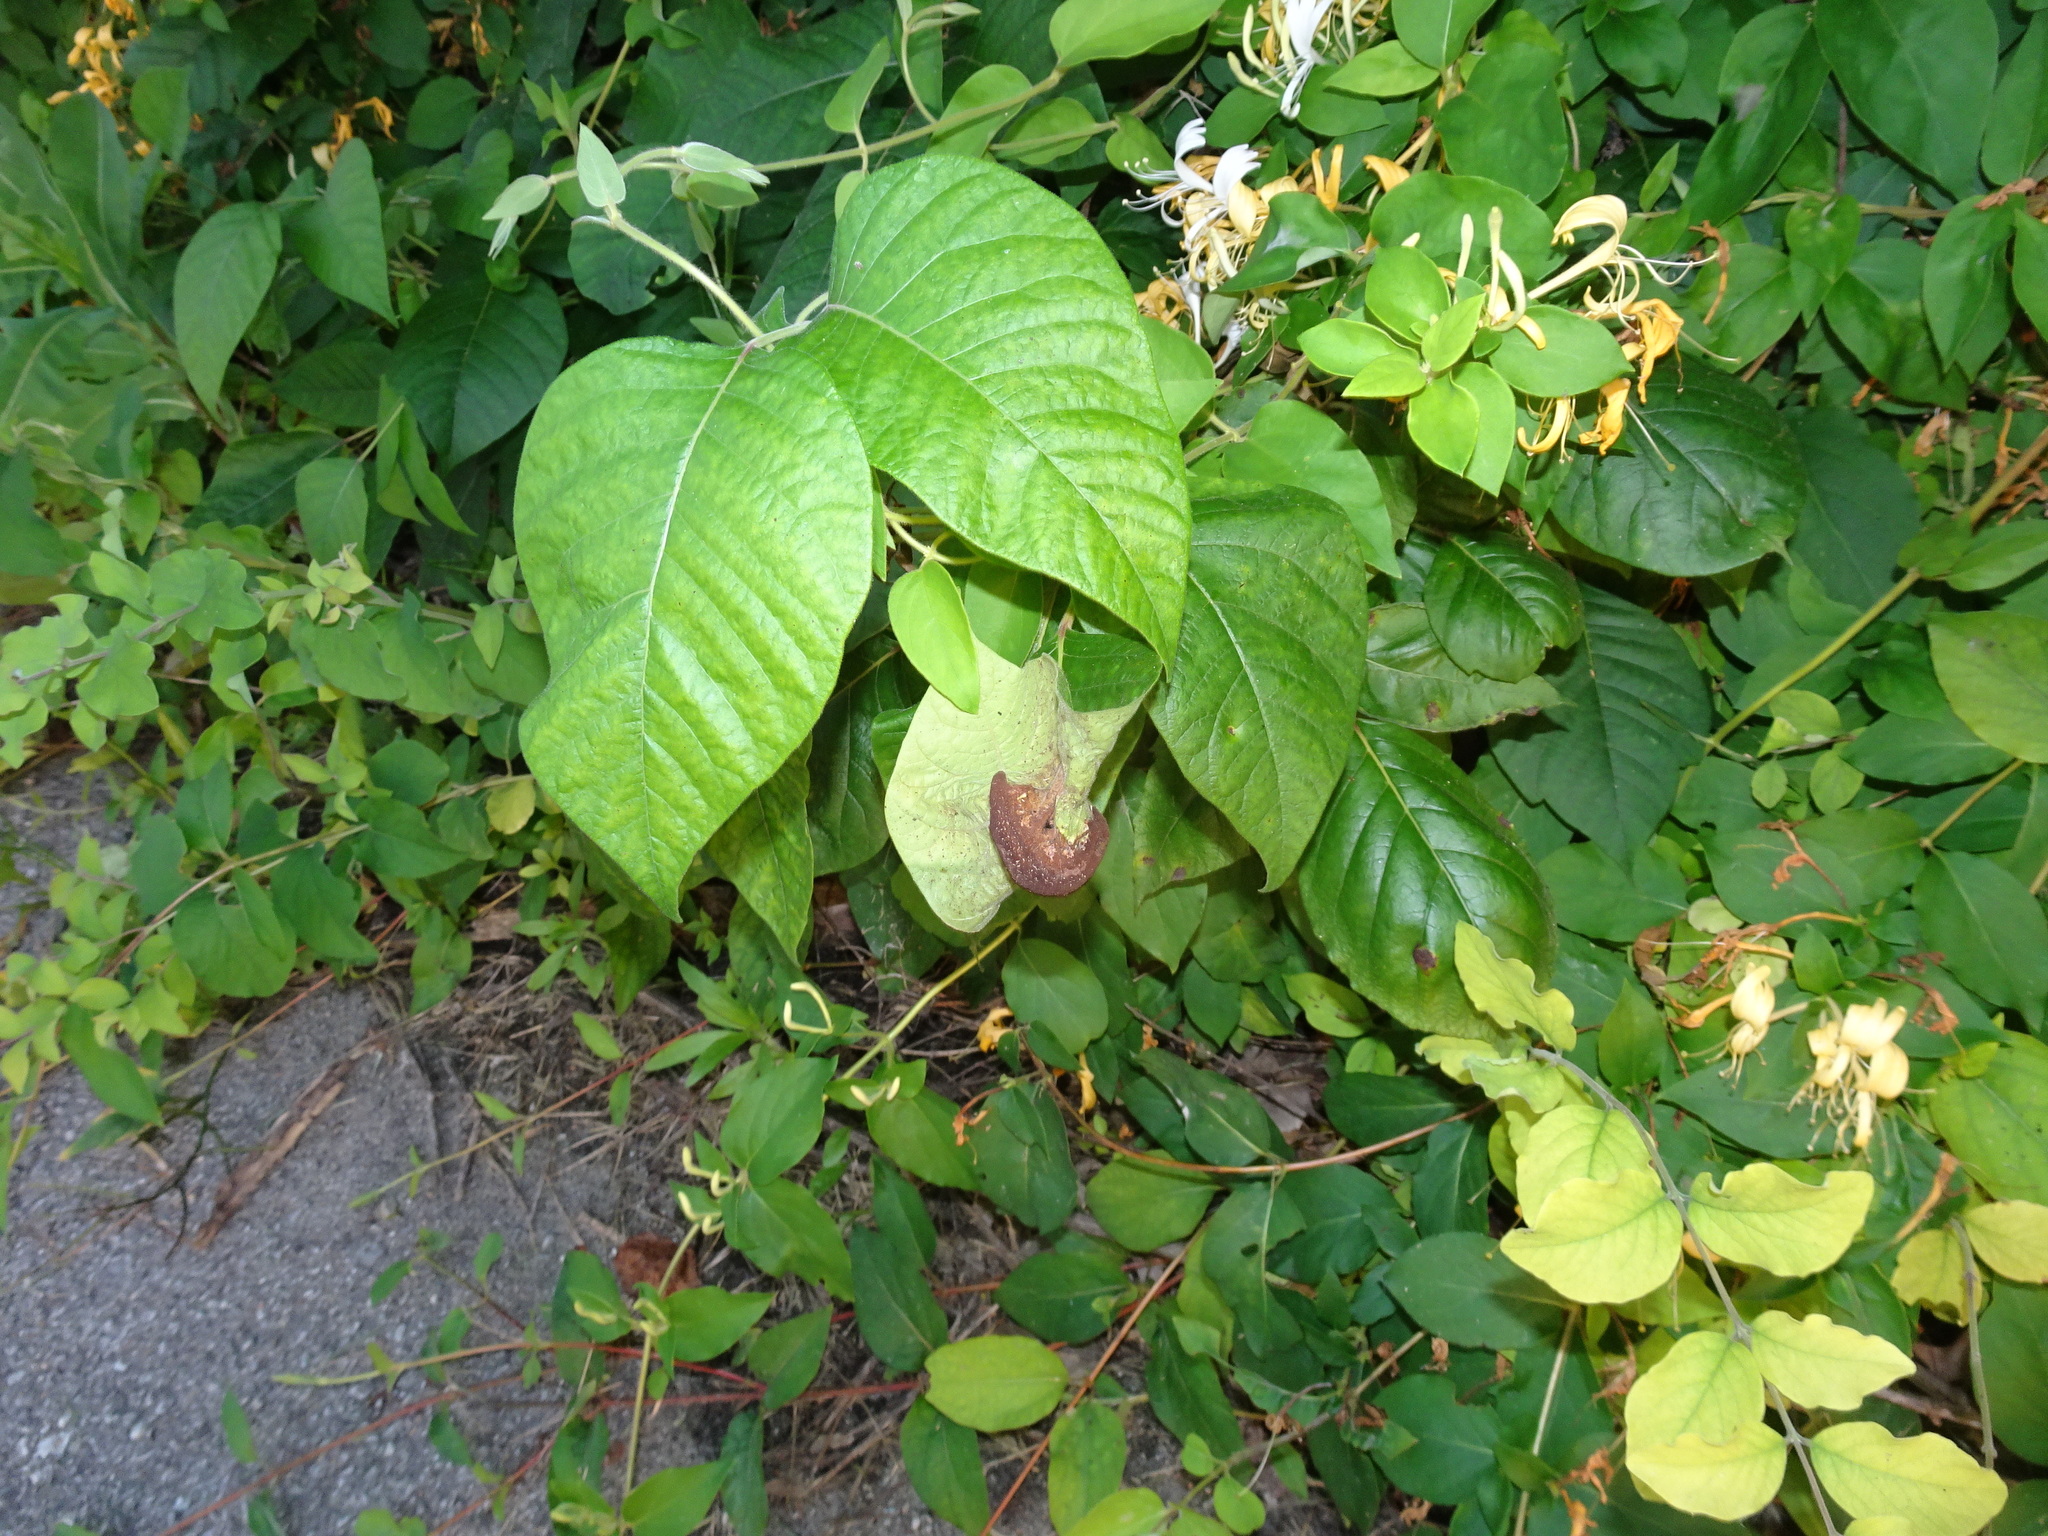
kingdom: Fungi
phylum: Basidiomycota
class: Pucciniomycetes
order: Pucciniales
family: Pileolariaceae
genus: Pileolaria
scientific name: Pileolaria brevipes
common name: Poison ivy rust
